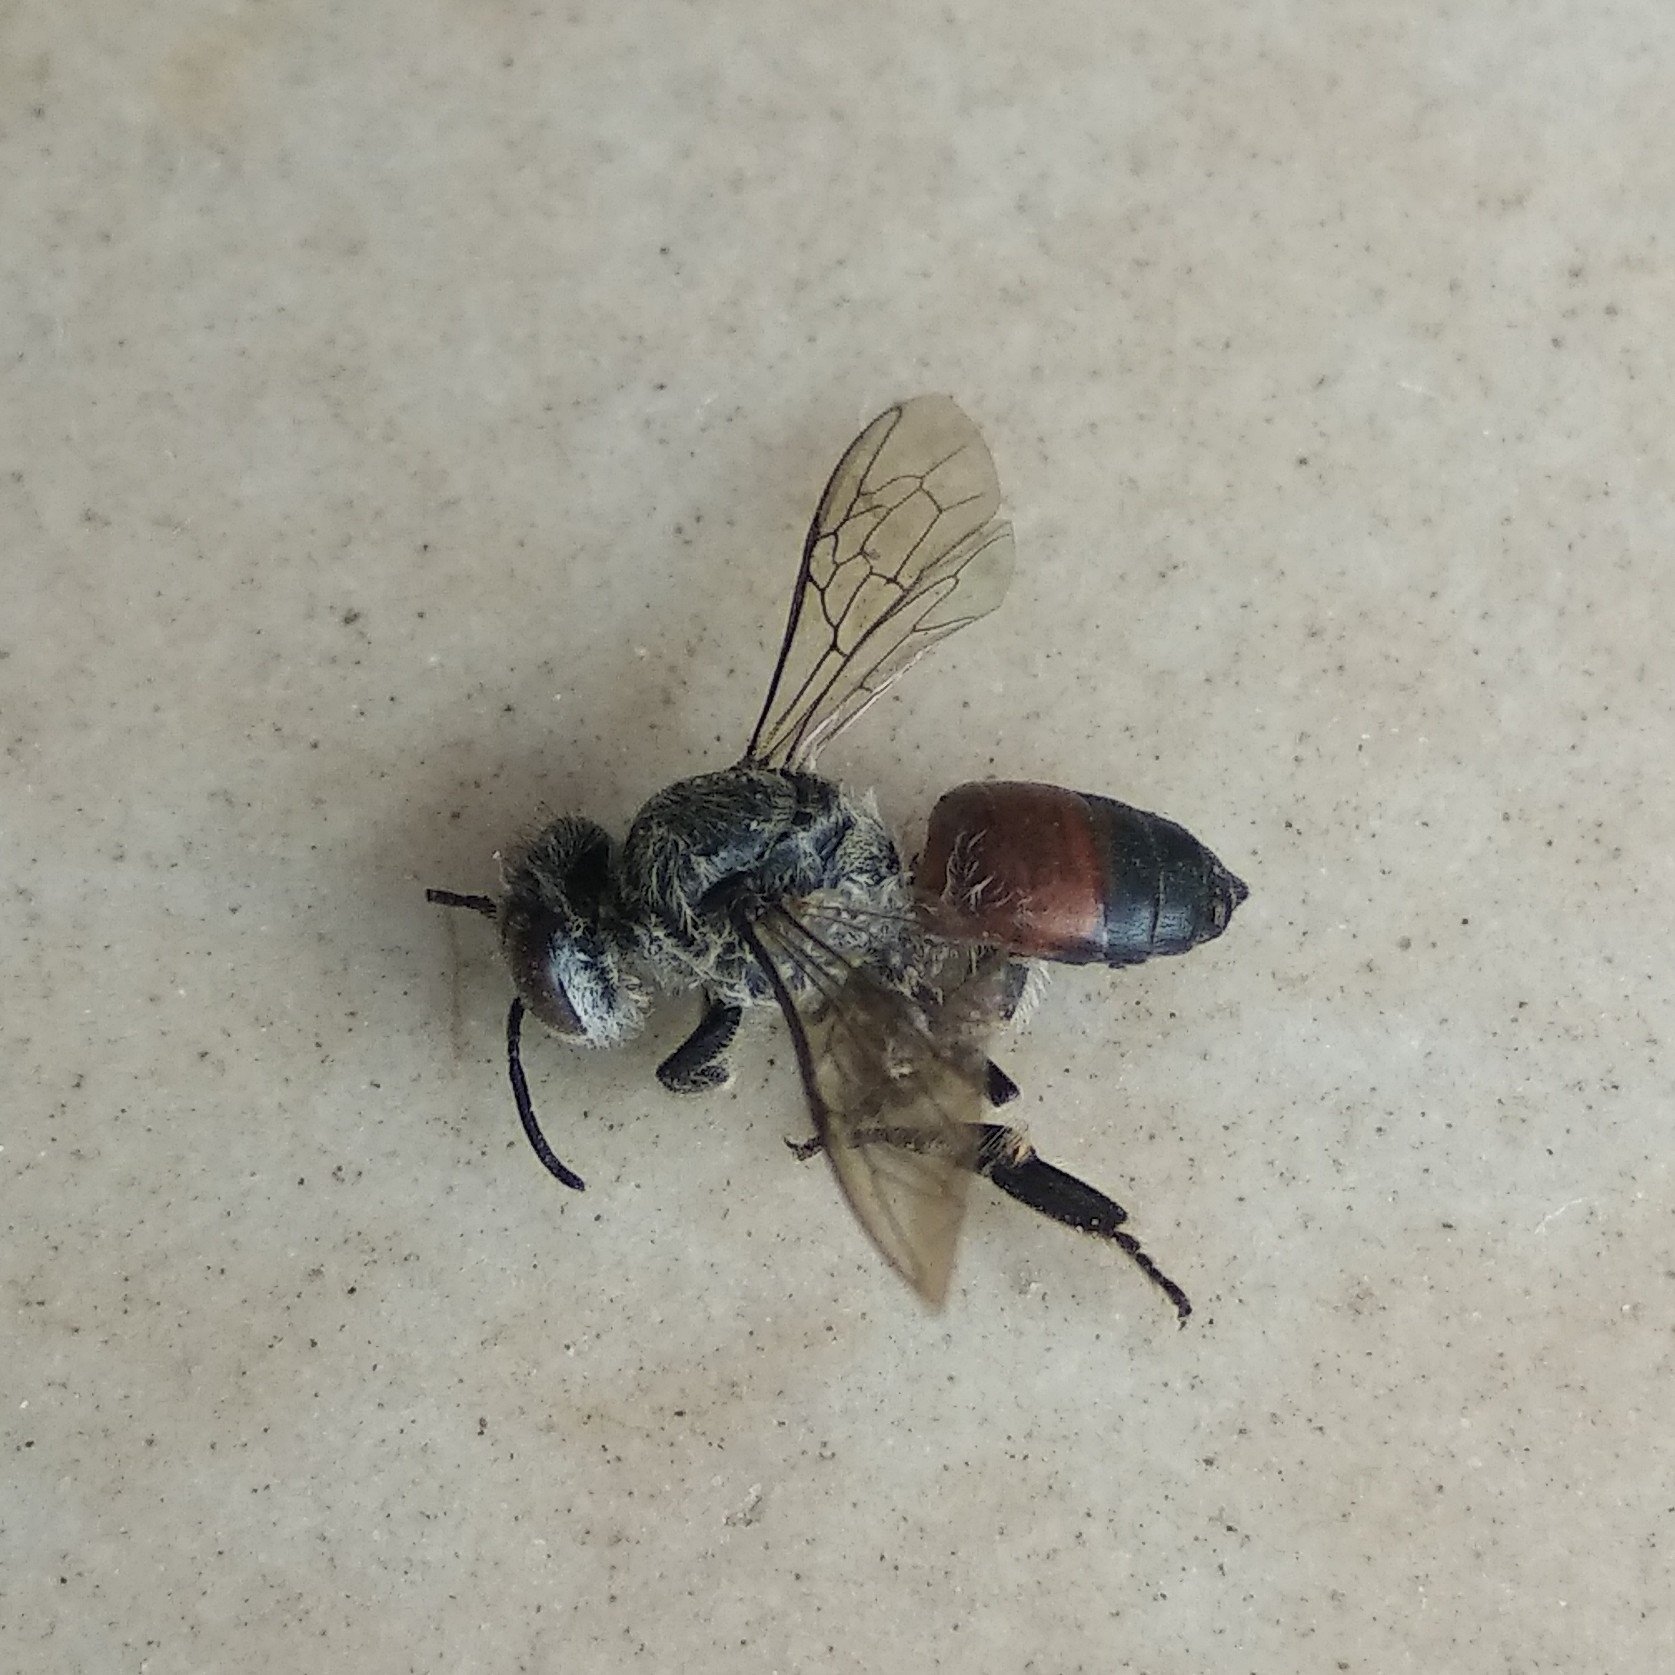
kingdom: Animalia
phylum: Arthropoda
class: Insecta
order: Hymenoptera
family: Apidae
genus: Apis
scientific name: Apis florea
